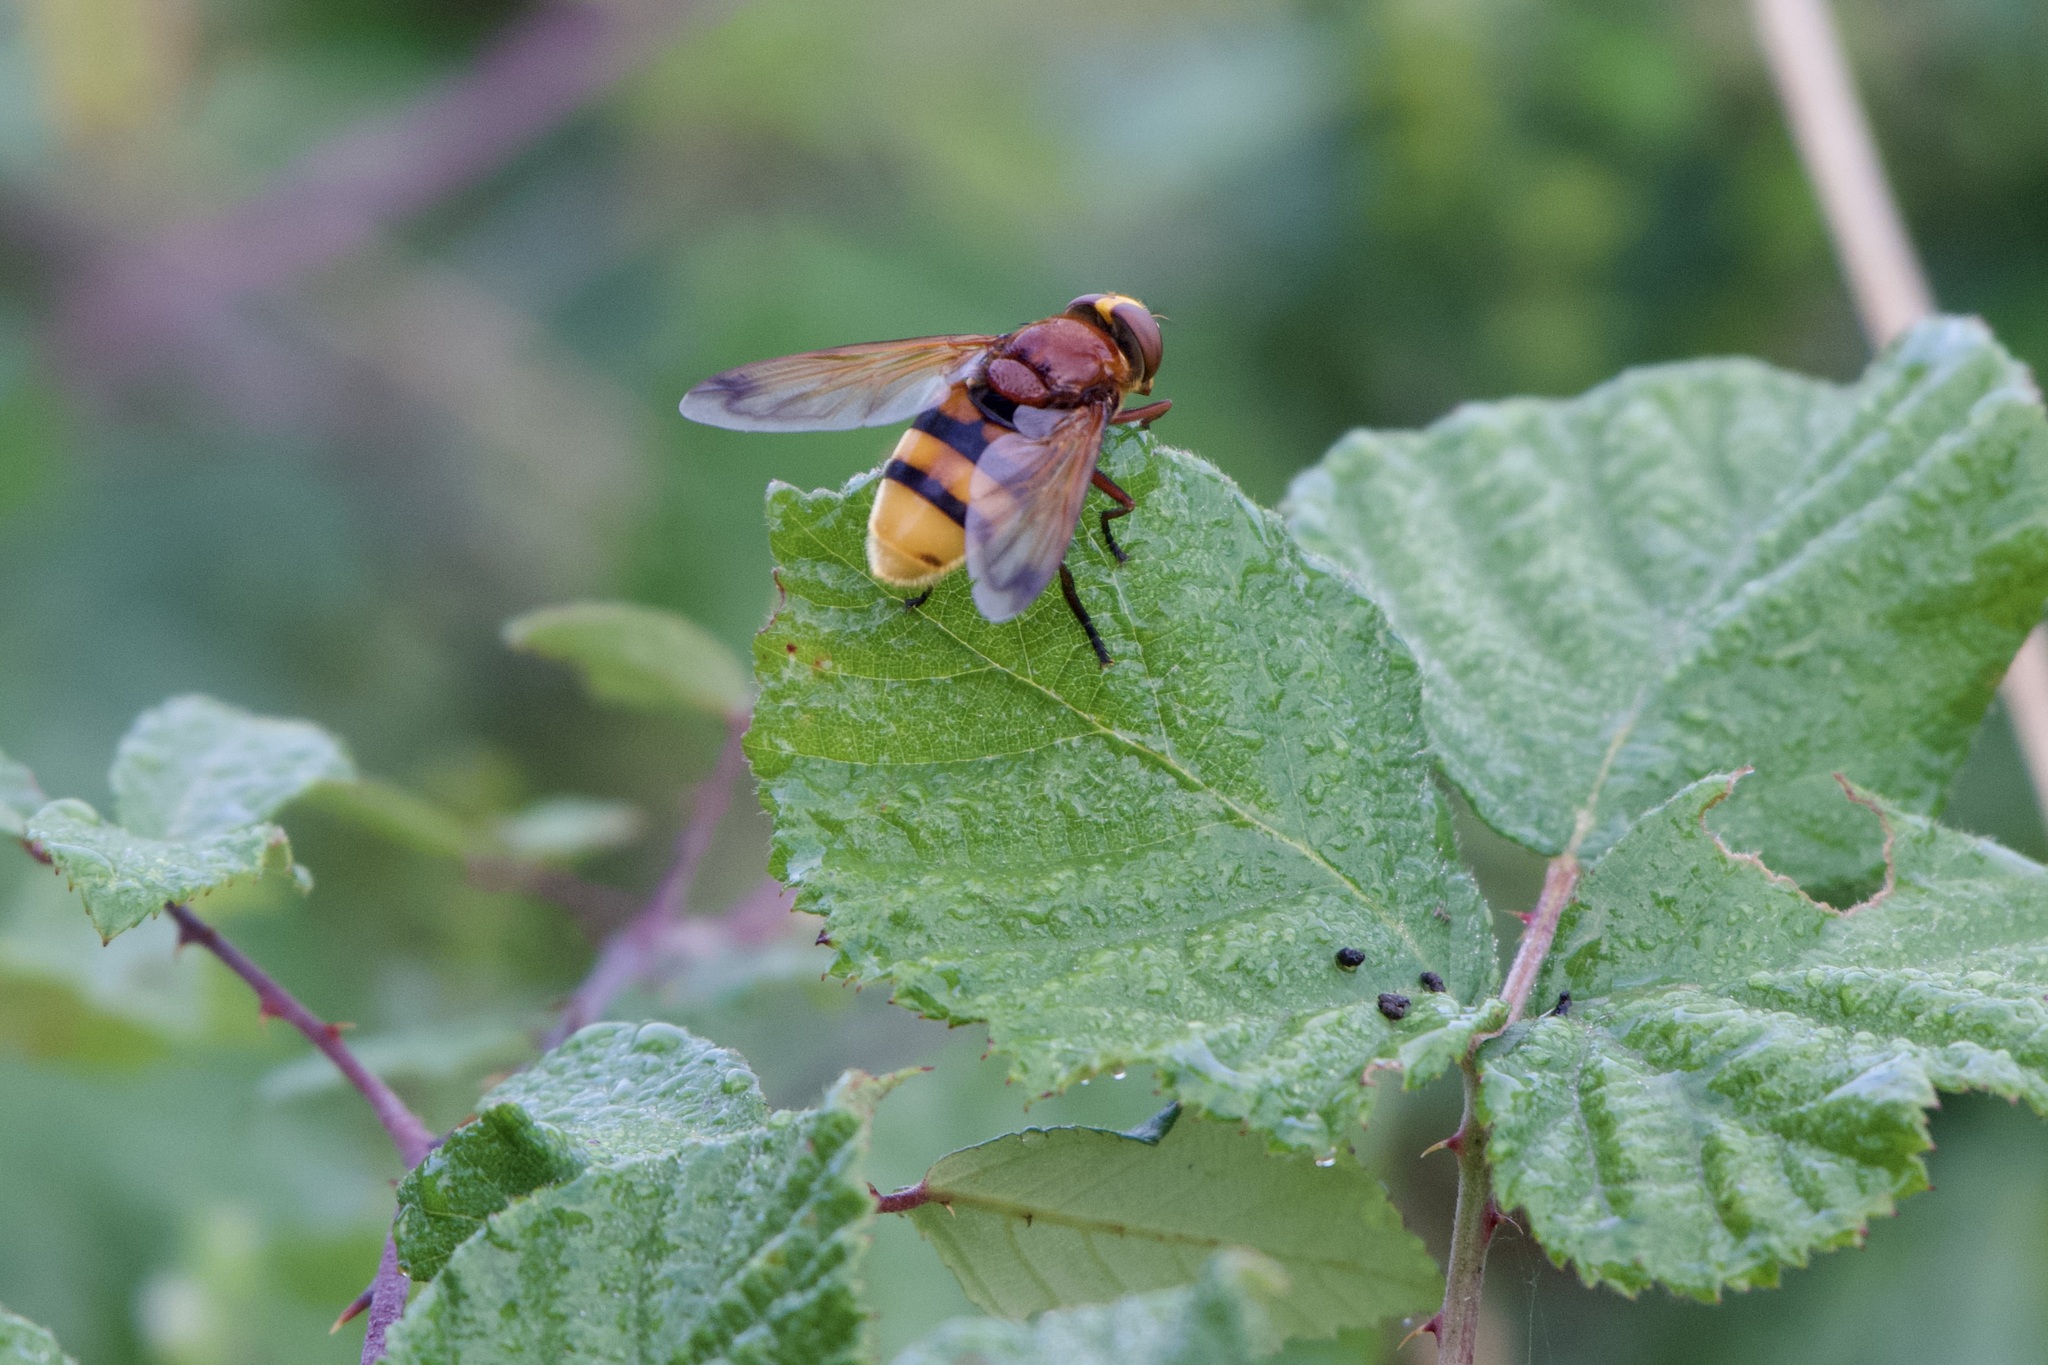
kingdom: Animalia
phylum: Arthropoda
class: Insecta
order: Diptera
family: Syrphidae
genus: Volucella
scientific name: Volucella zonaria
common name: Hornet hoverfly
